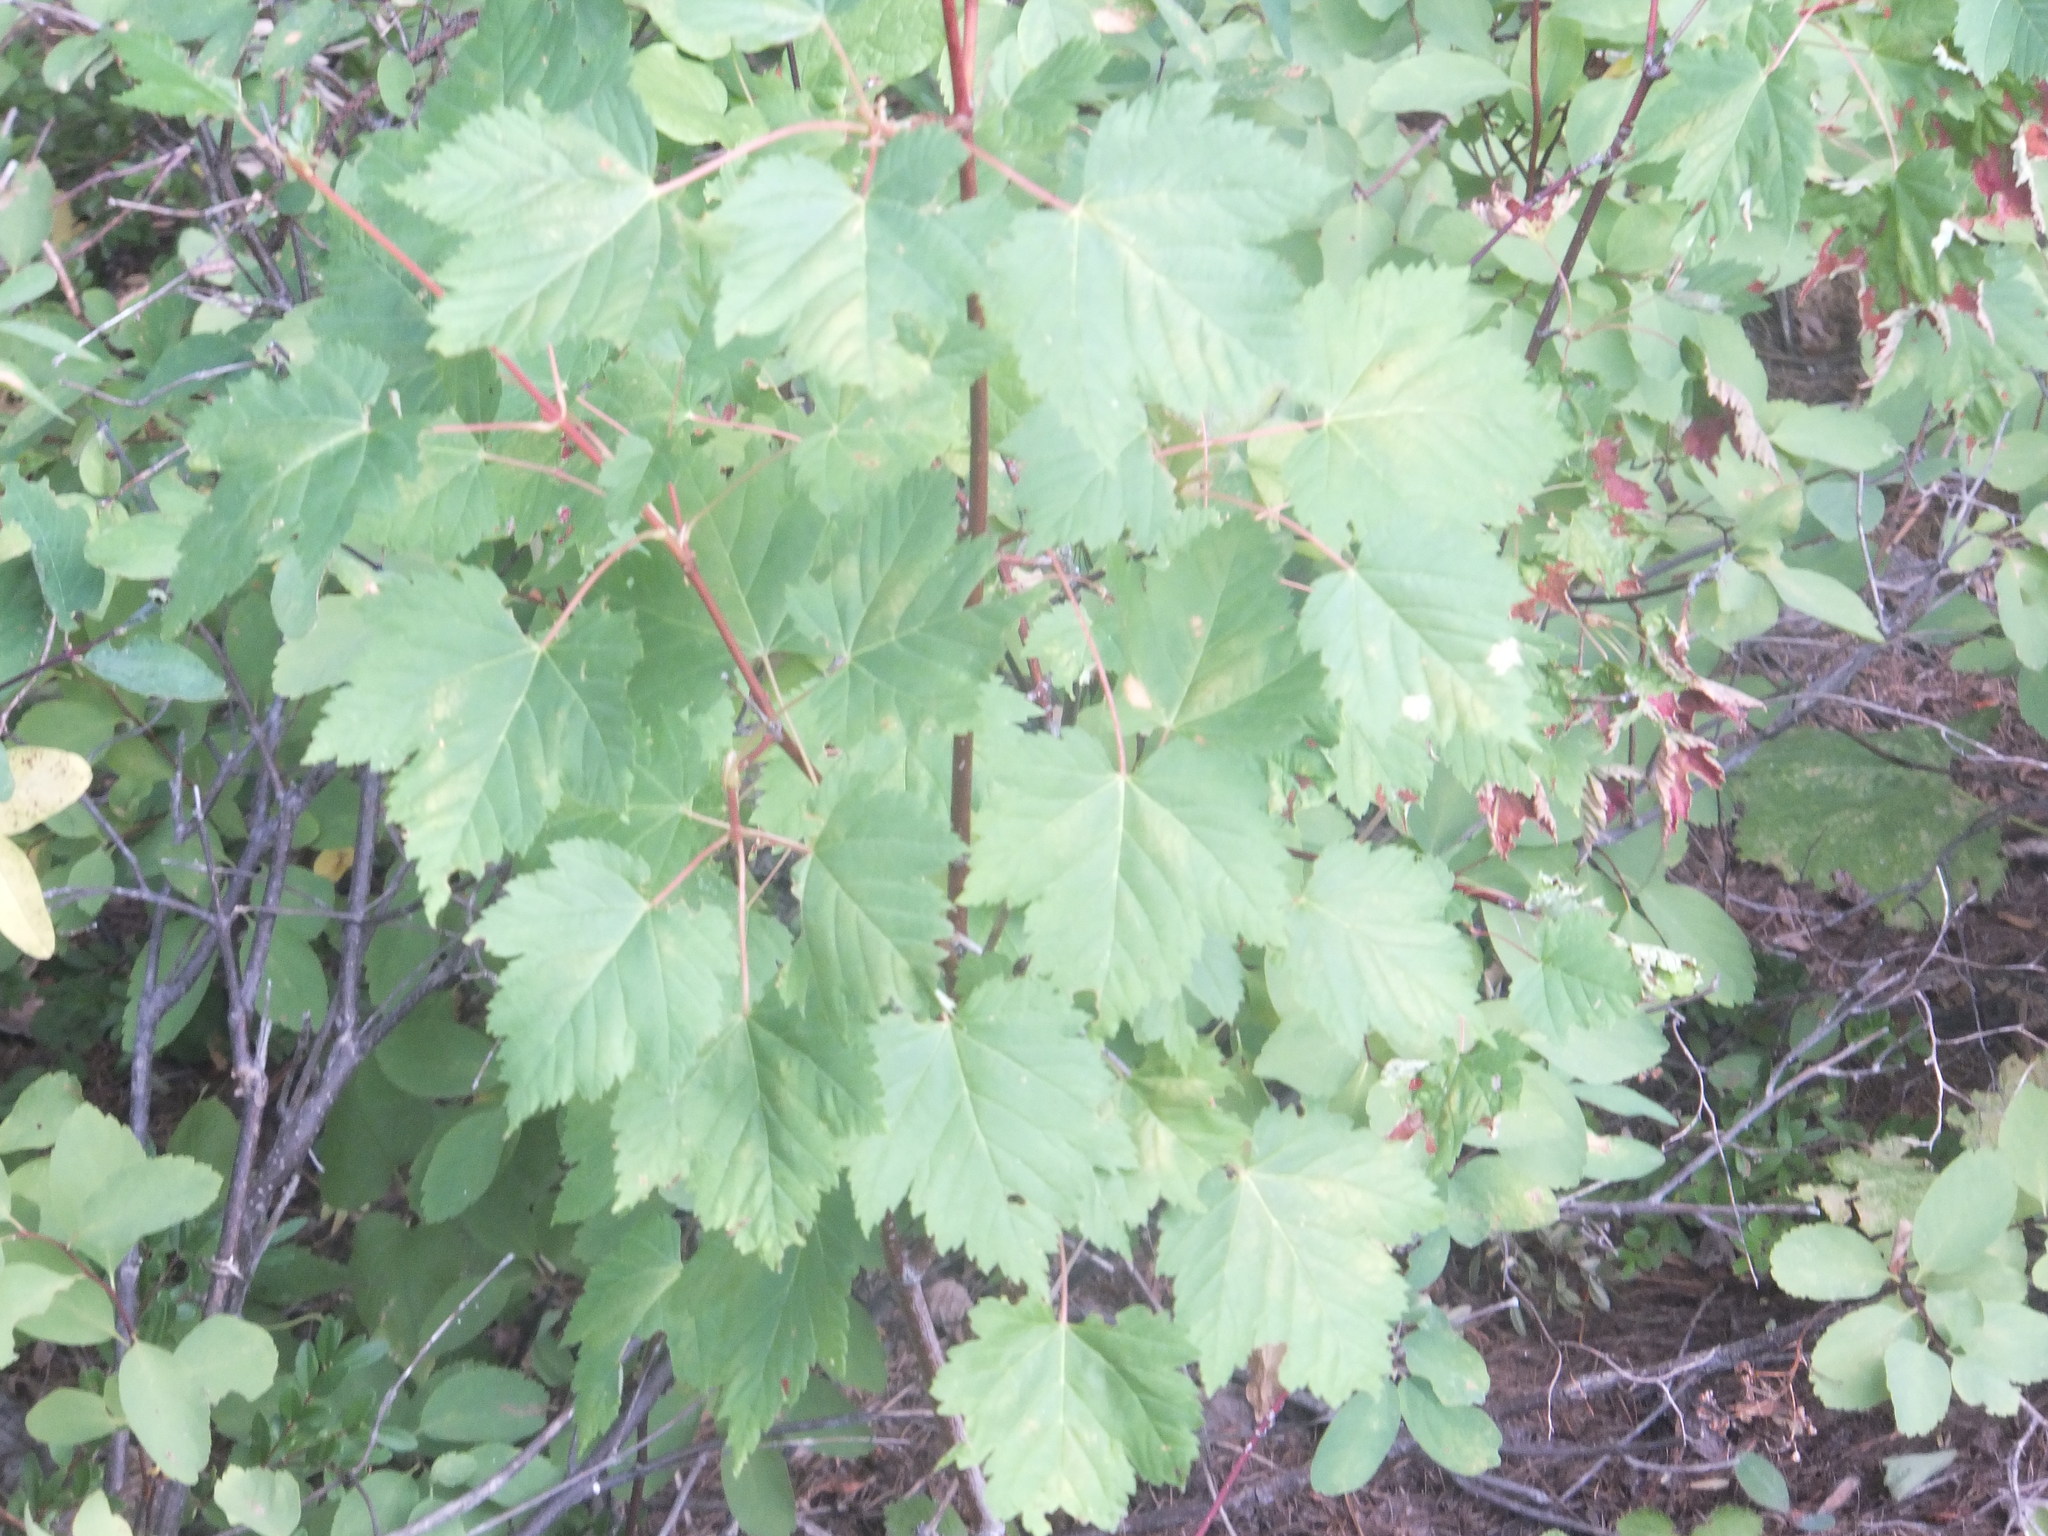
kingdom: Plantae
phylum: Tracheophyta
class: Magnoliopsida
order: Sapindales
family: Sapindaceae
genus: Acer
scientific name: Acer glabrum
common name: Rocky mountain maple
